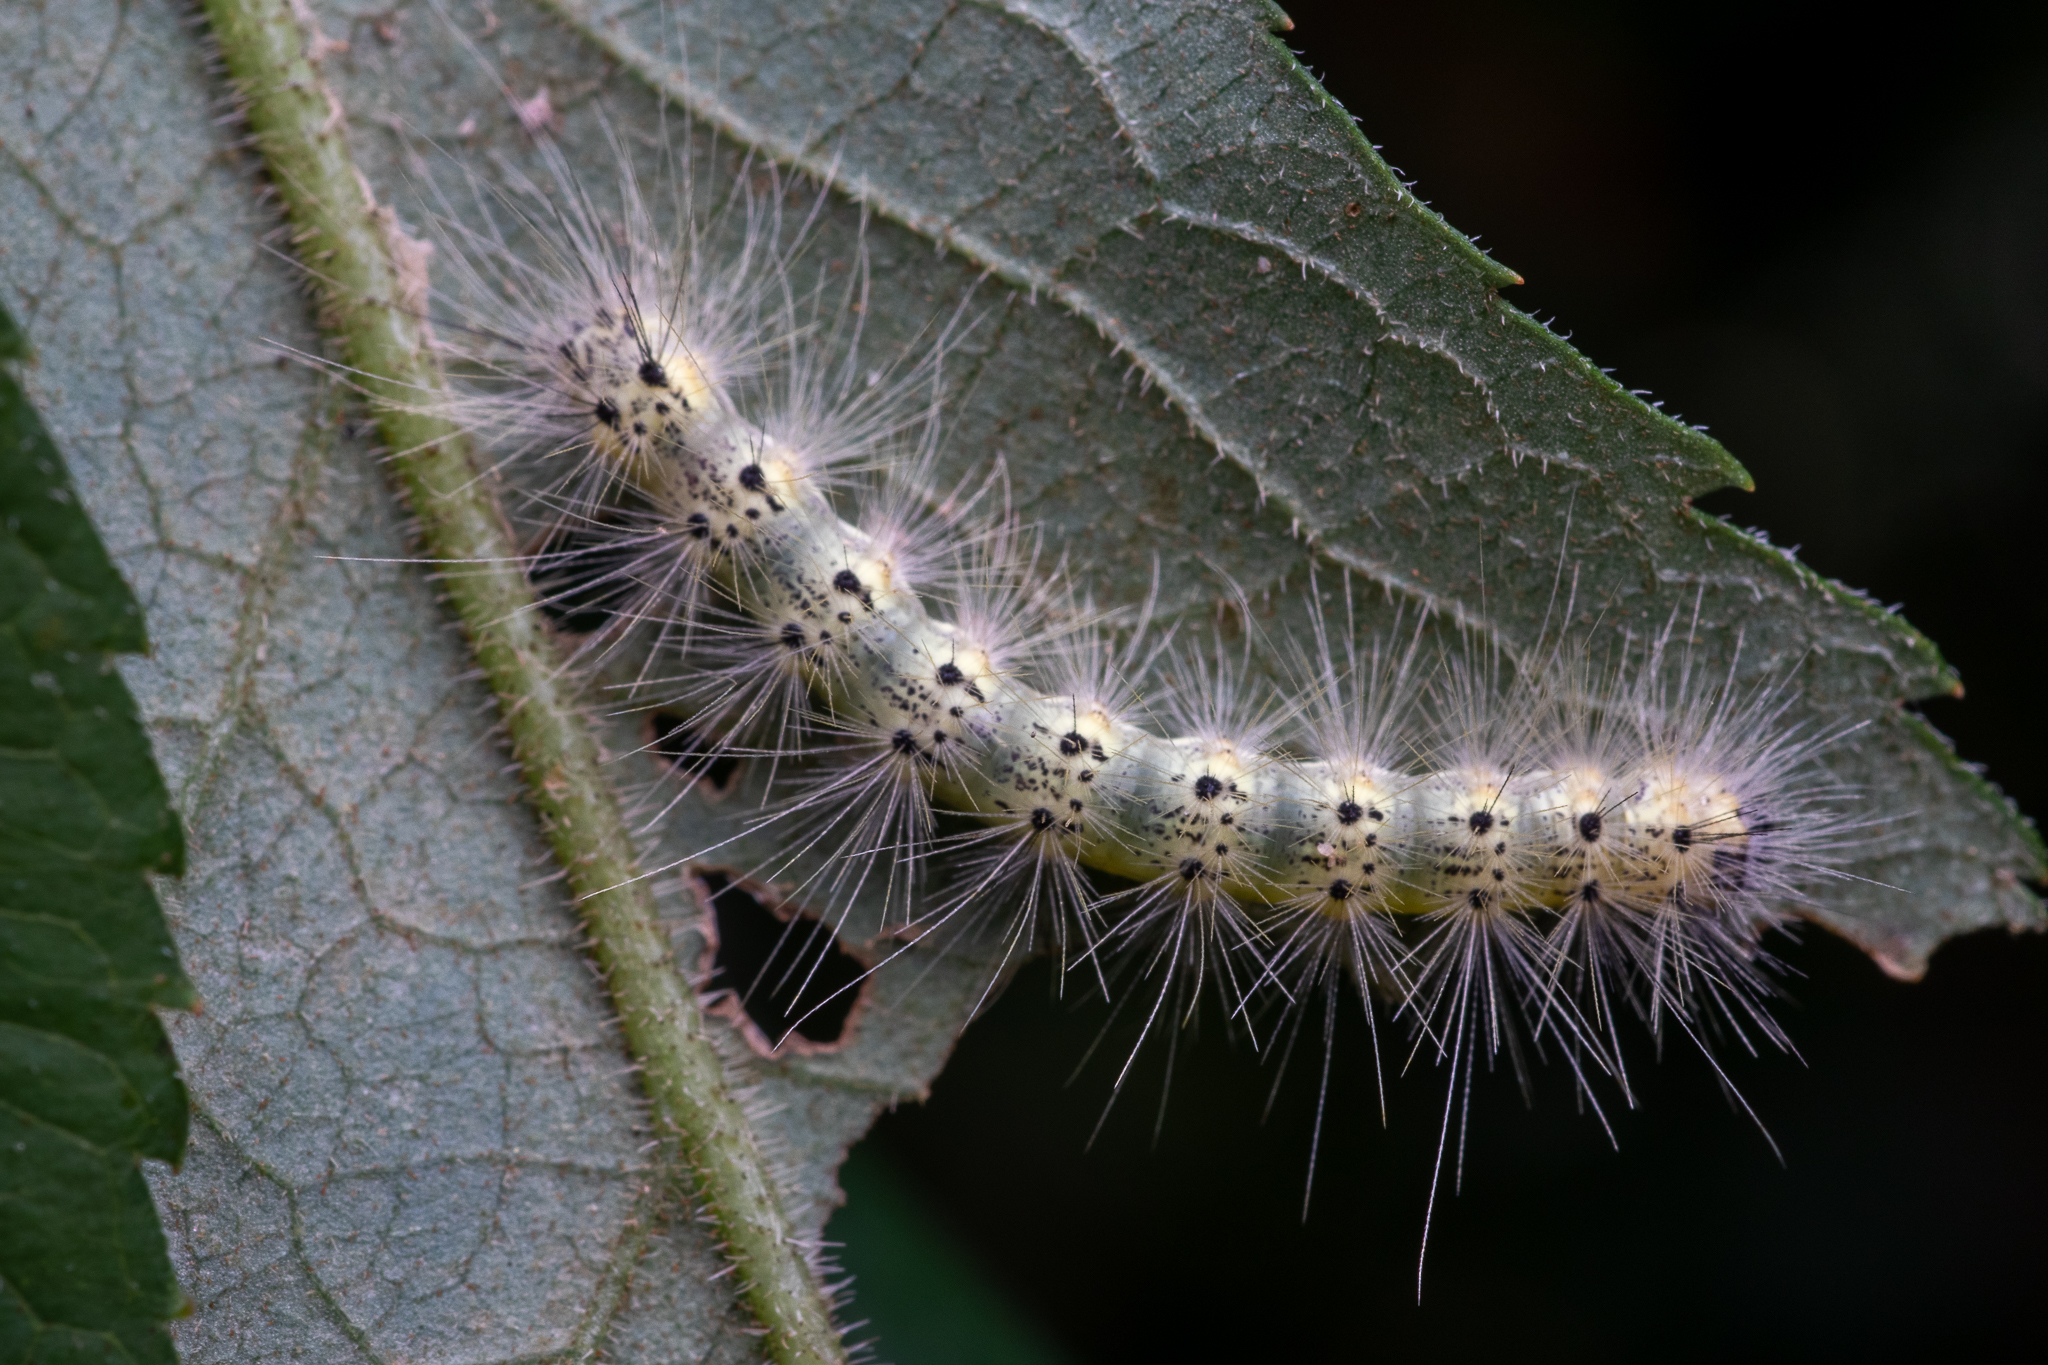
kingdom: Animalia
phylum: Arthropoda
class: Insecta
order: Lepidoptera
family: Erebidae
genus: Hyphantria
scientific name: Hyphantria cunea
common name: American white moth
